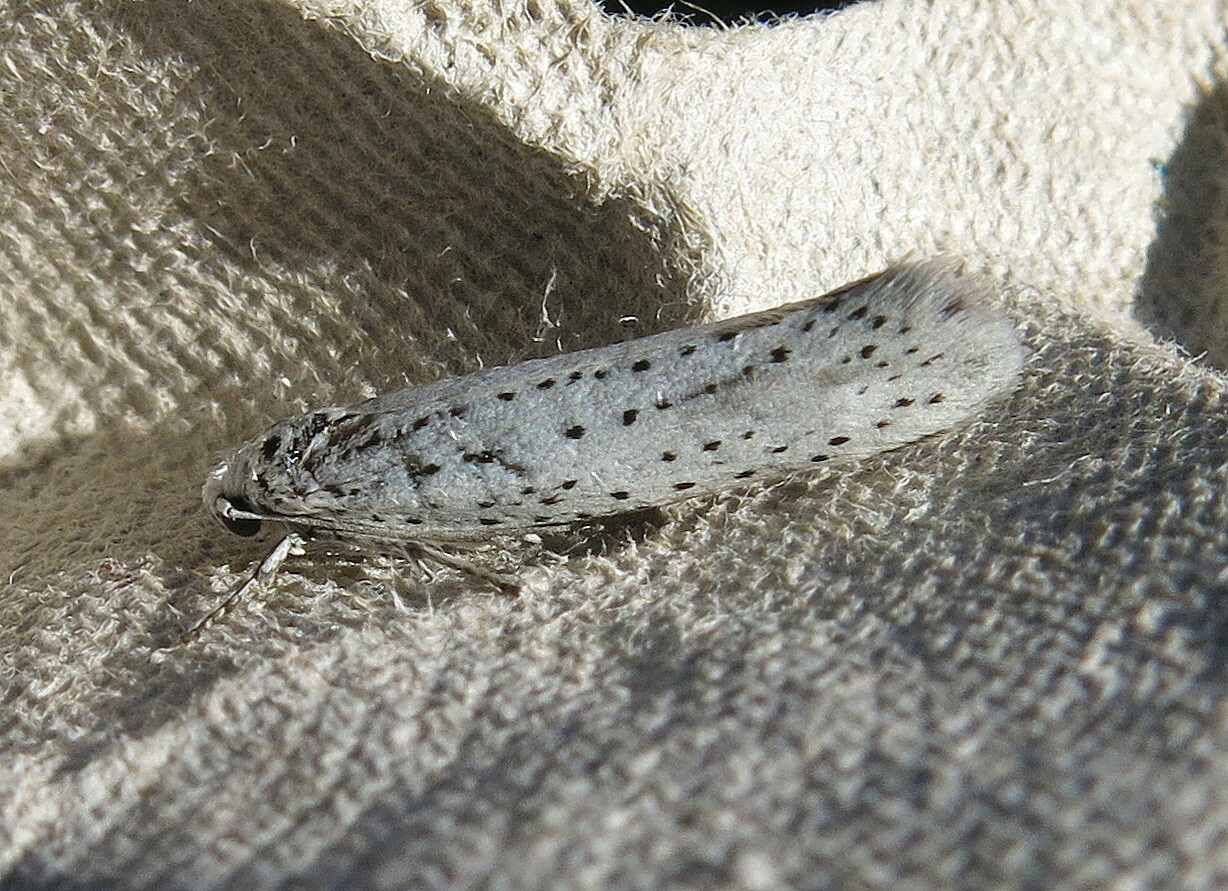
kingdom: Animalia
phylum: Arthropoda
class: Insecta
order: Lepidoptera
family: Yponomeutidae
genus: Yponomeuta
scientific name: Yponomeuta evonymella
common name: Bird-cherry ermine
